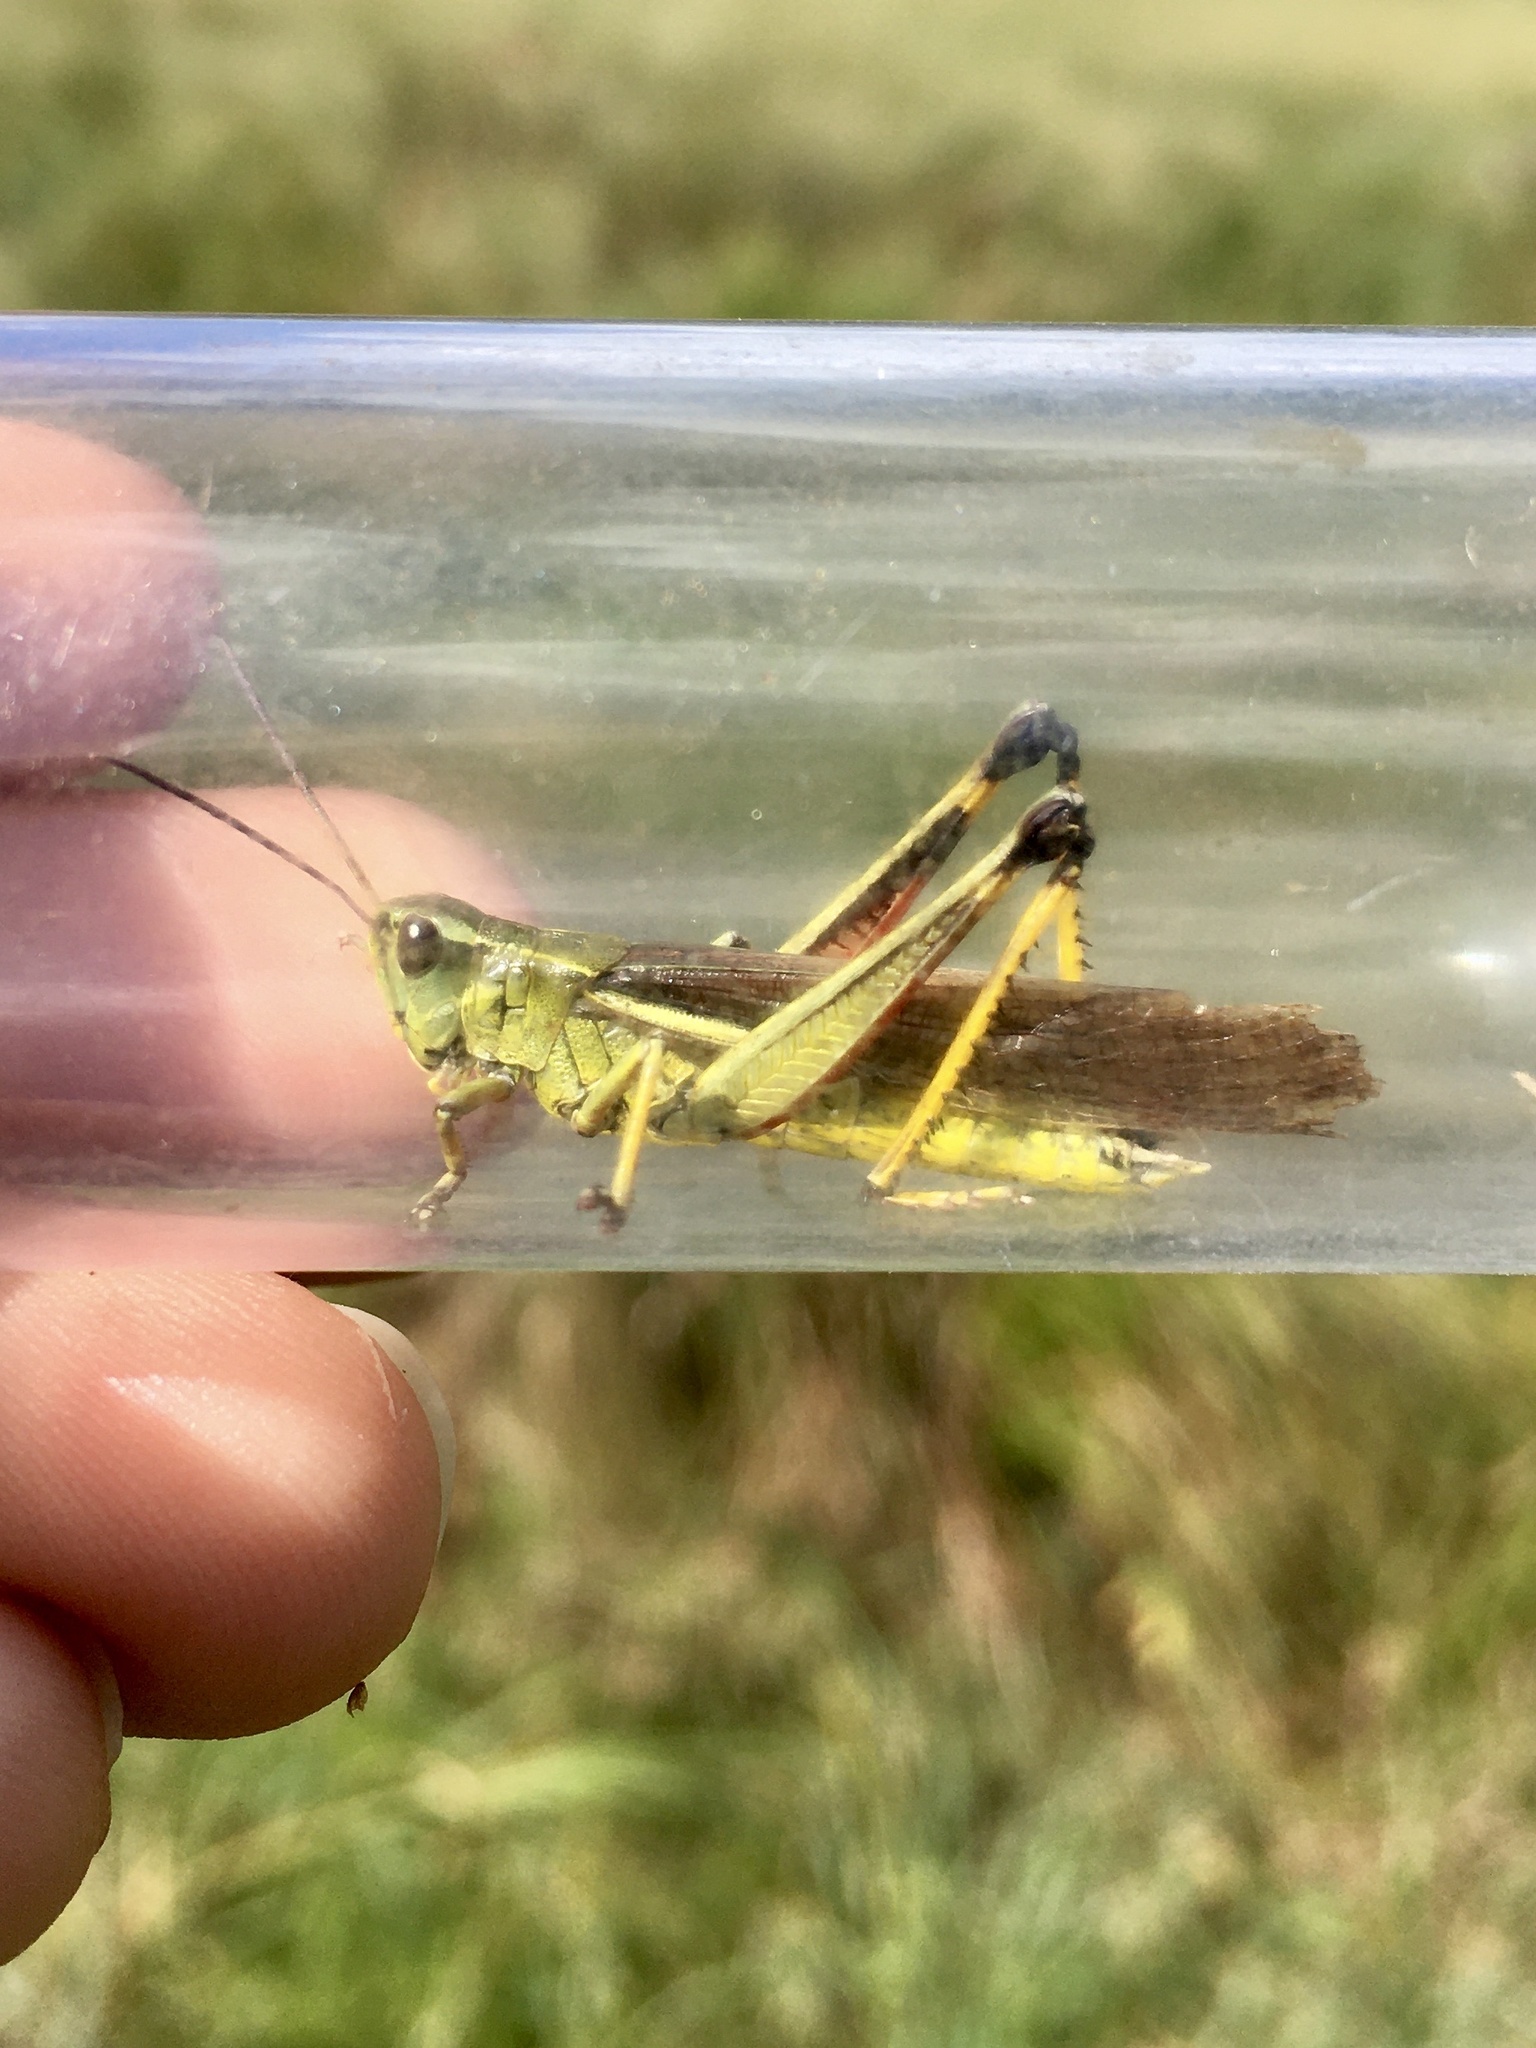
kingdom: Animalia
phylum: Arthropoda
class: Insecta
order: Orthoptera
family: Acrididae
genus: Stethophyma
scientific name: Stethophyma lineatum
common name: Striped sedge locust
